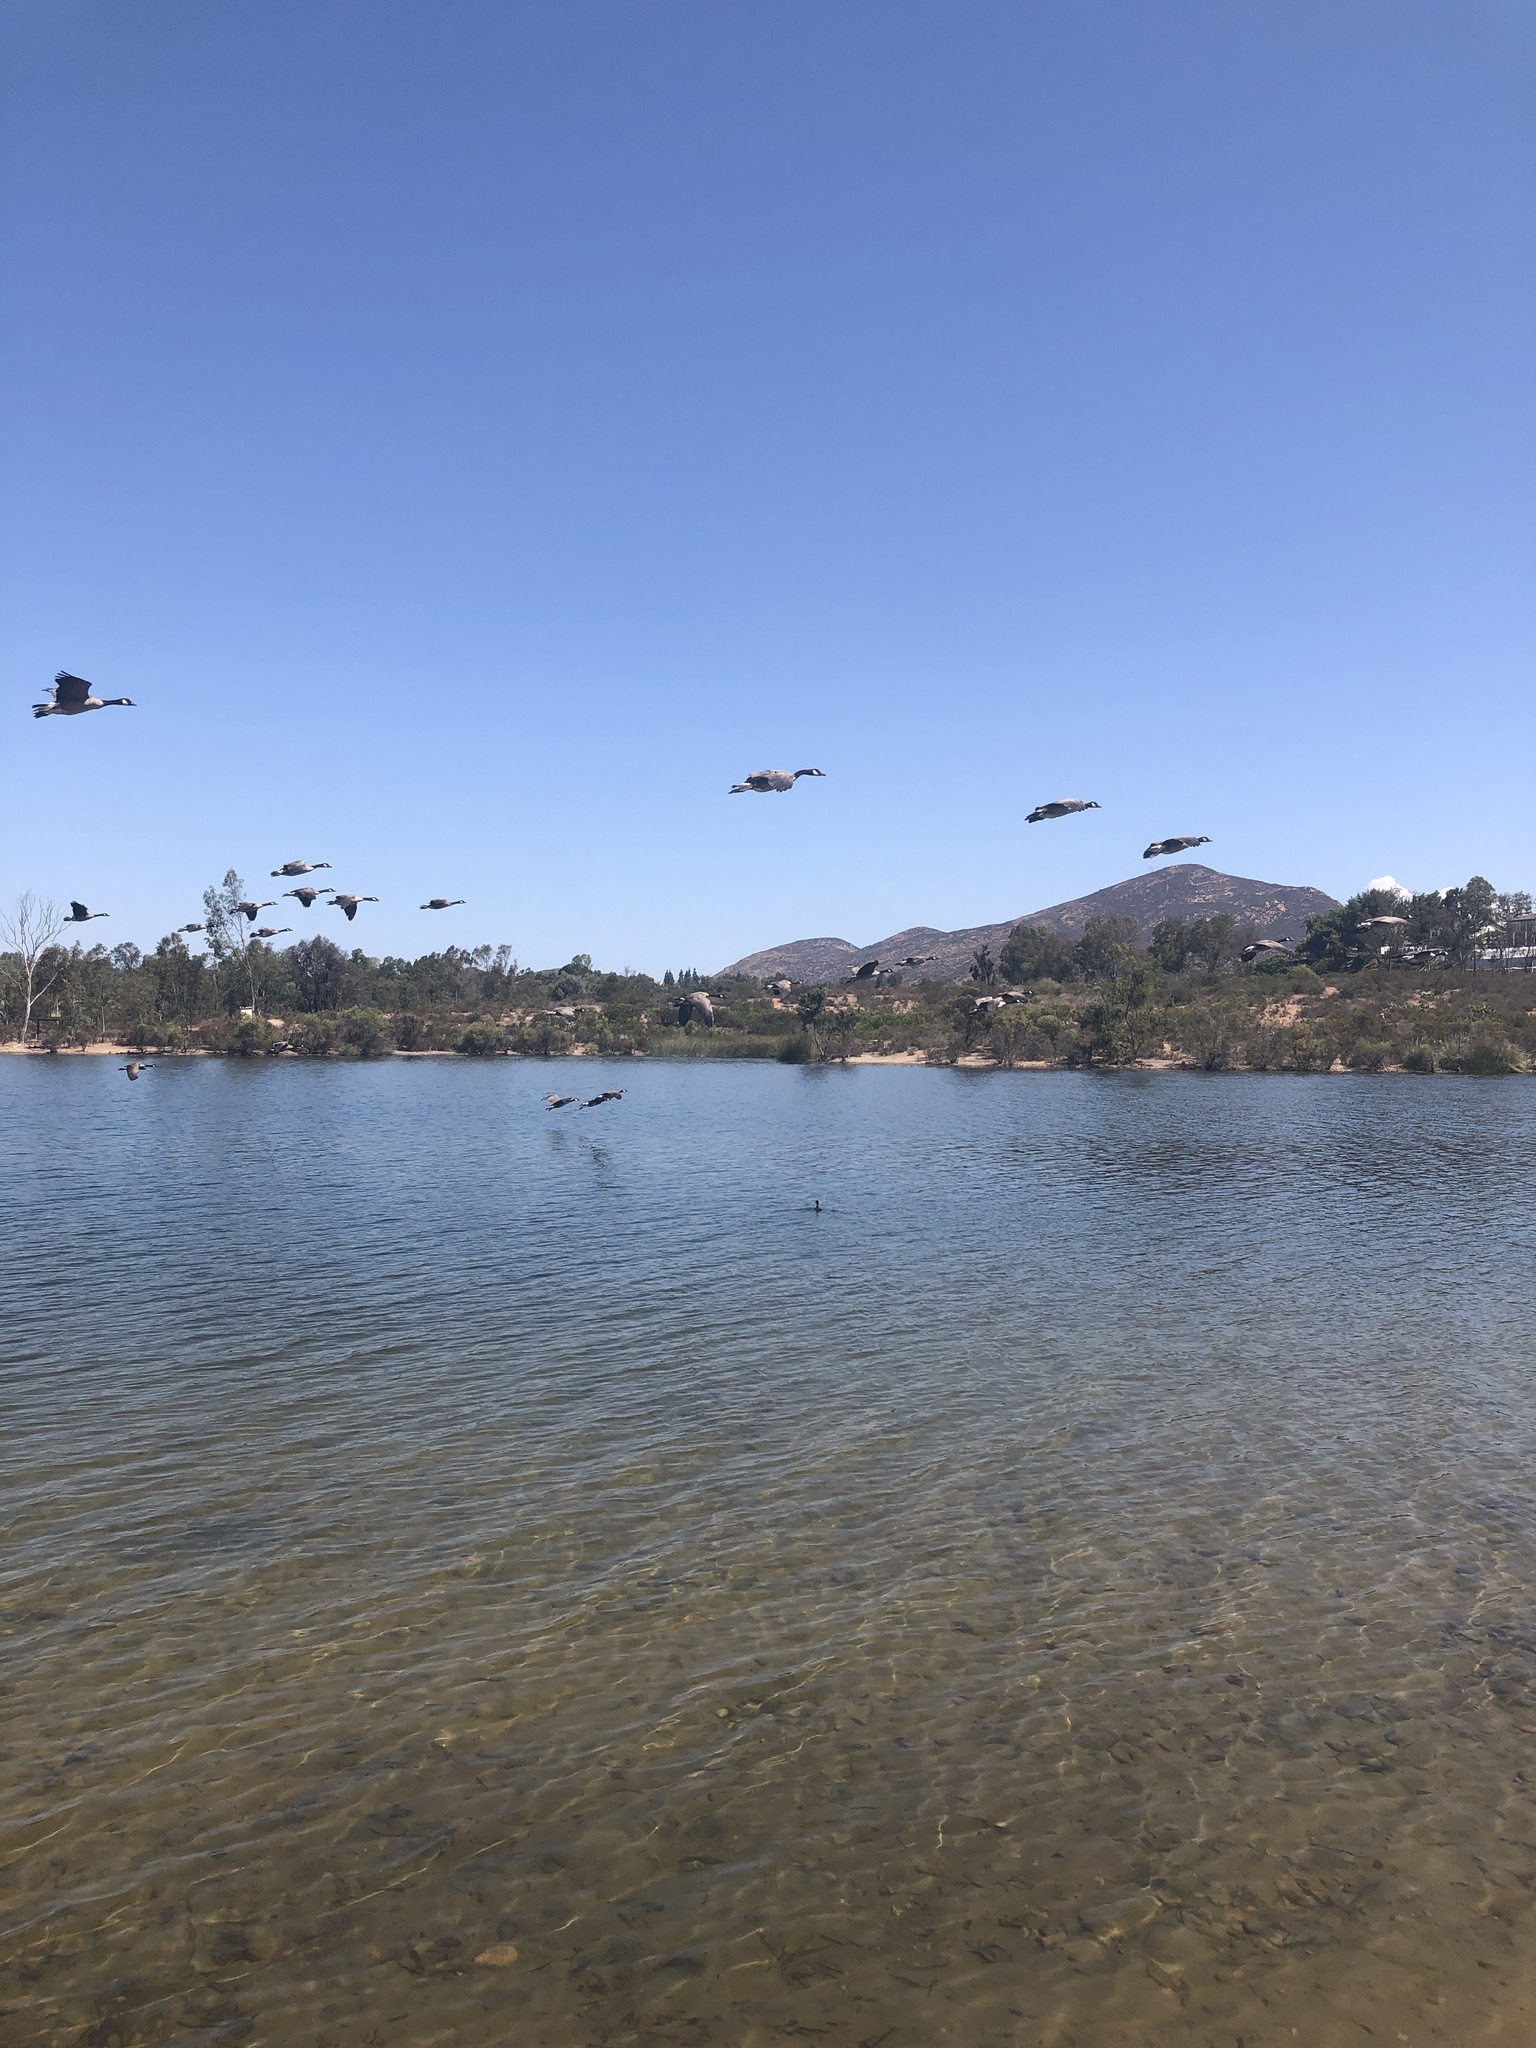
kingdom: Animalia
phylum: Chordata
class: Aves
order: Anseriformes
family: Anatidae
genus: Branta
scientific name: Branta canadensis
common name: Canada goose
